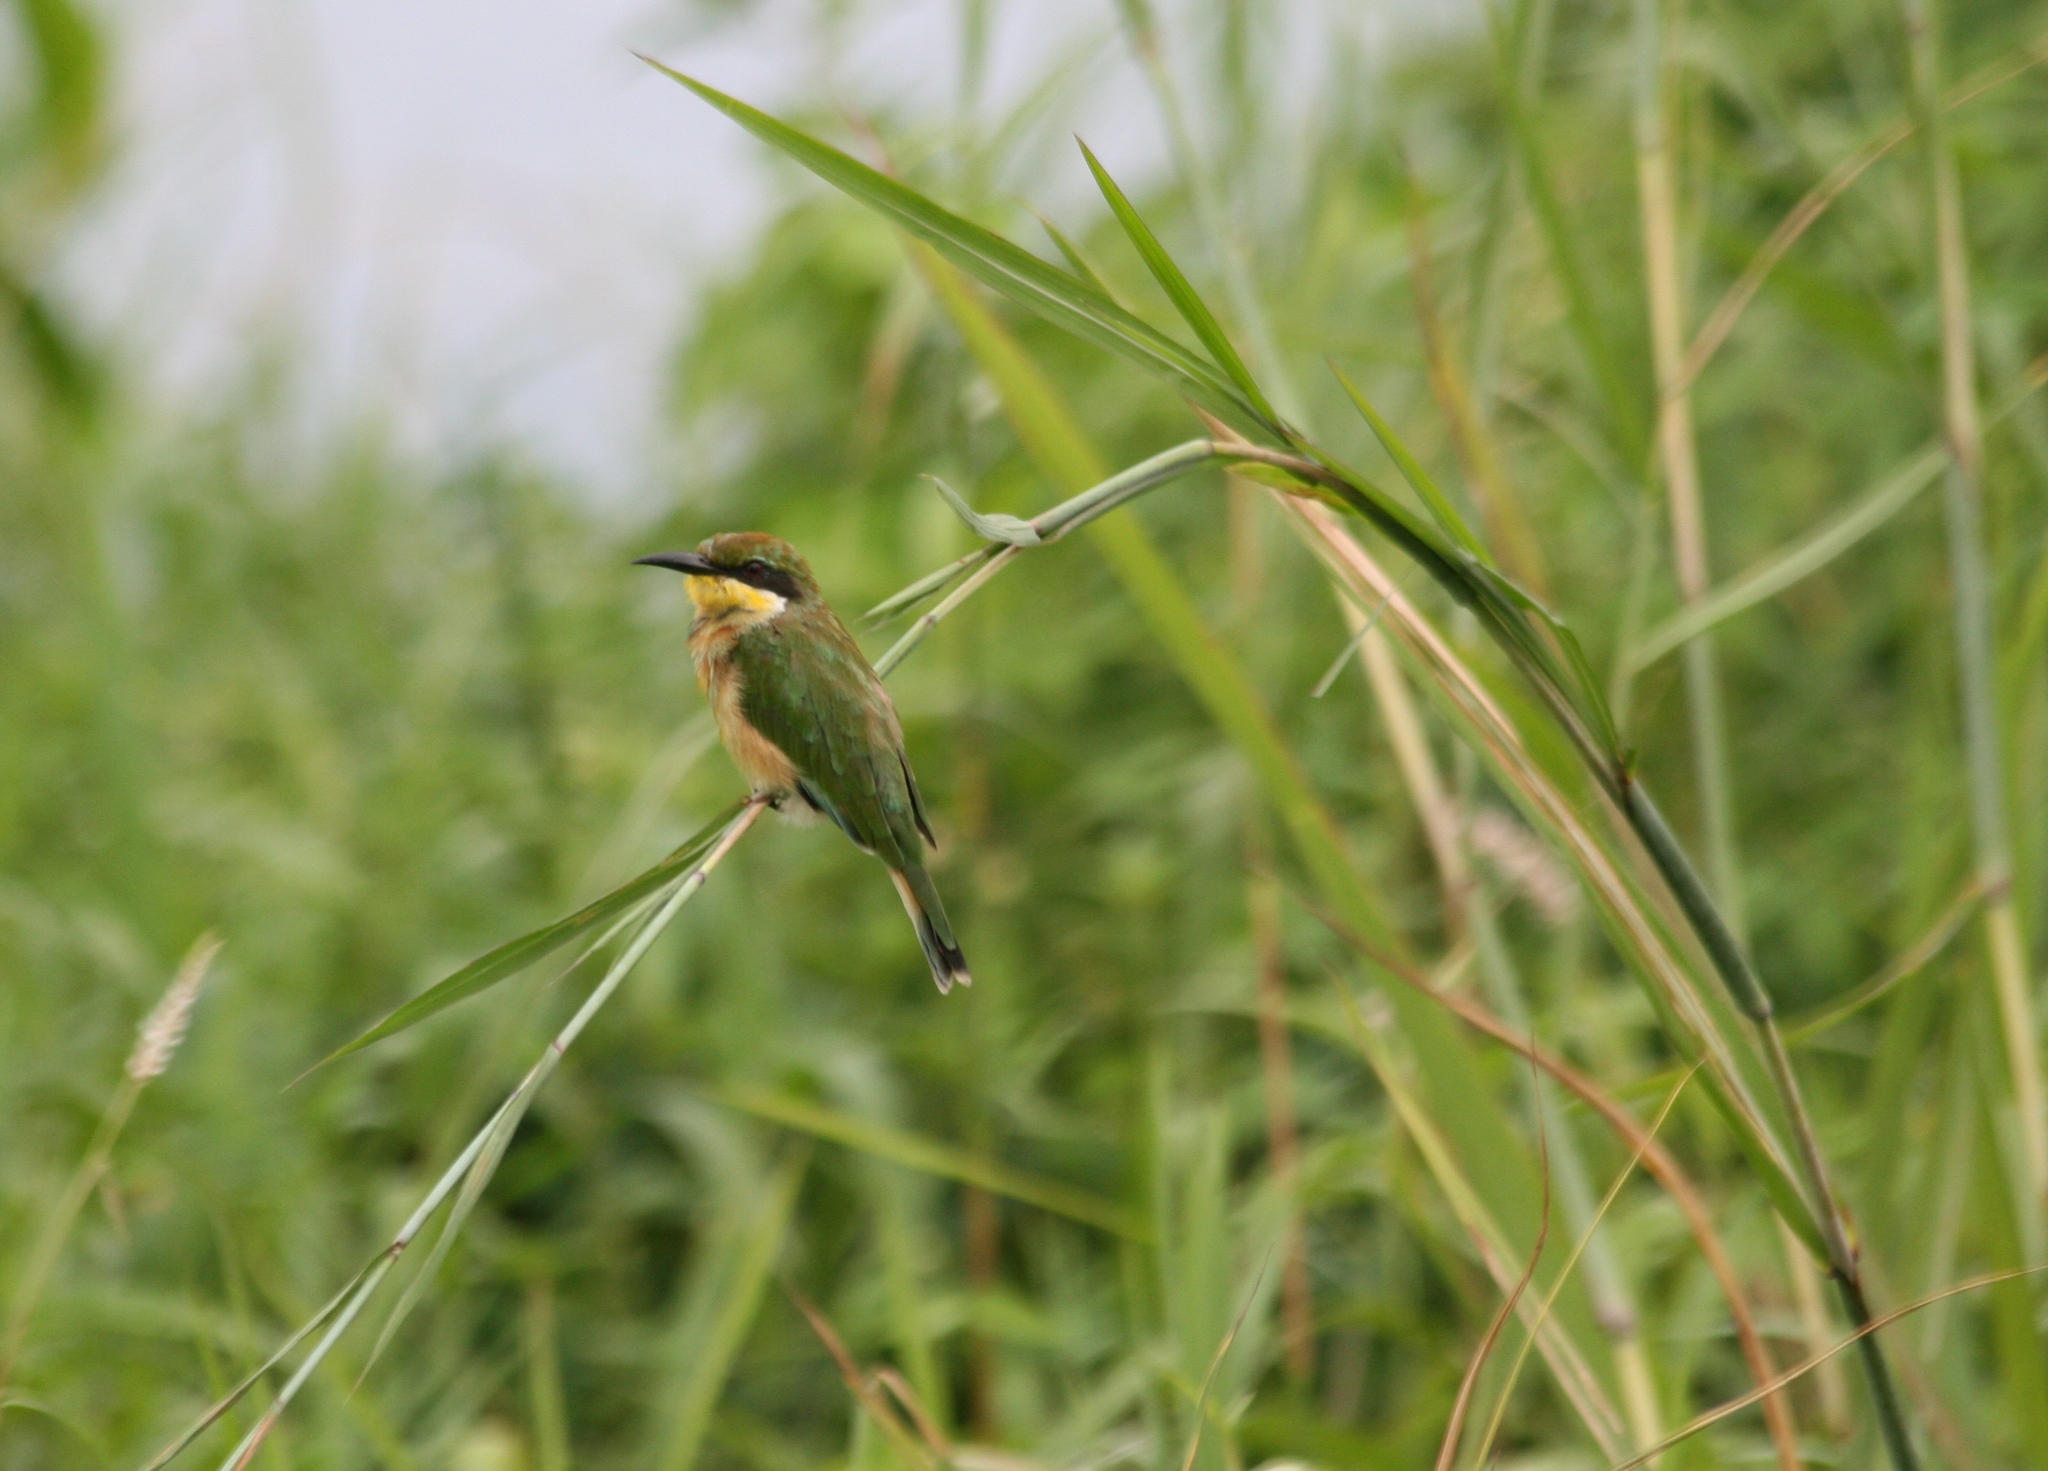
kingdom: Animalia
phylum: Chordata
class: Aves
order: Coraciiformes
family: Meropidae
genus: Merops
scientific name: Merops variegatus
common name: Blue-breasted bee-eater
